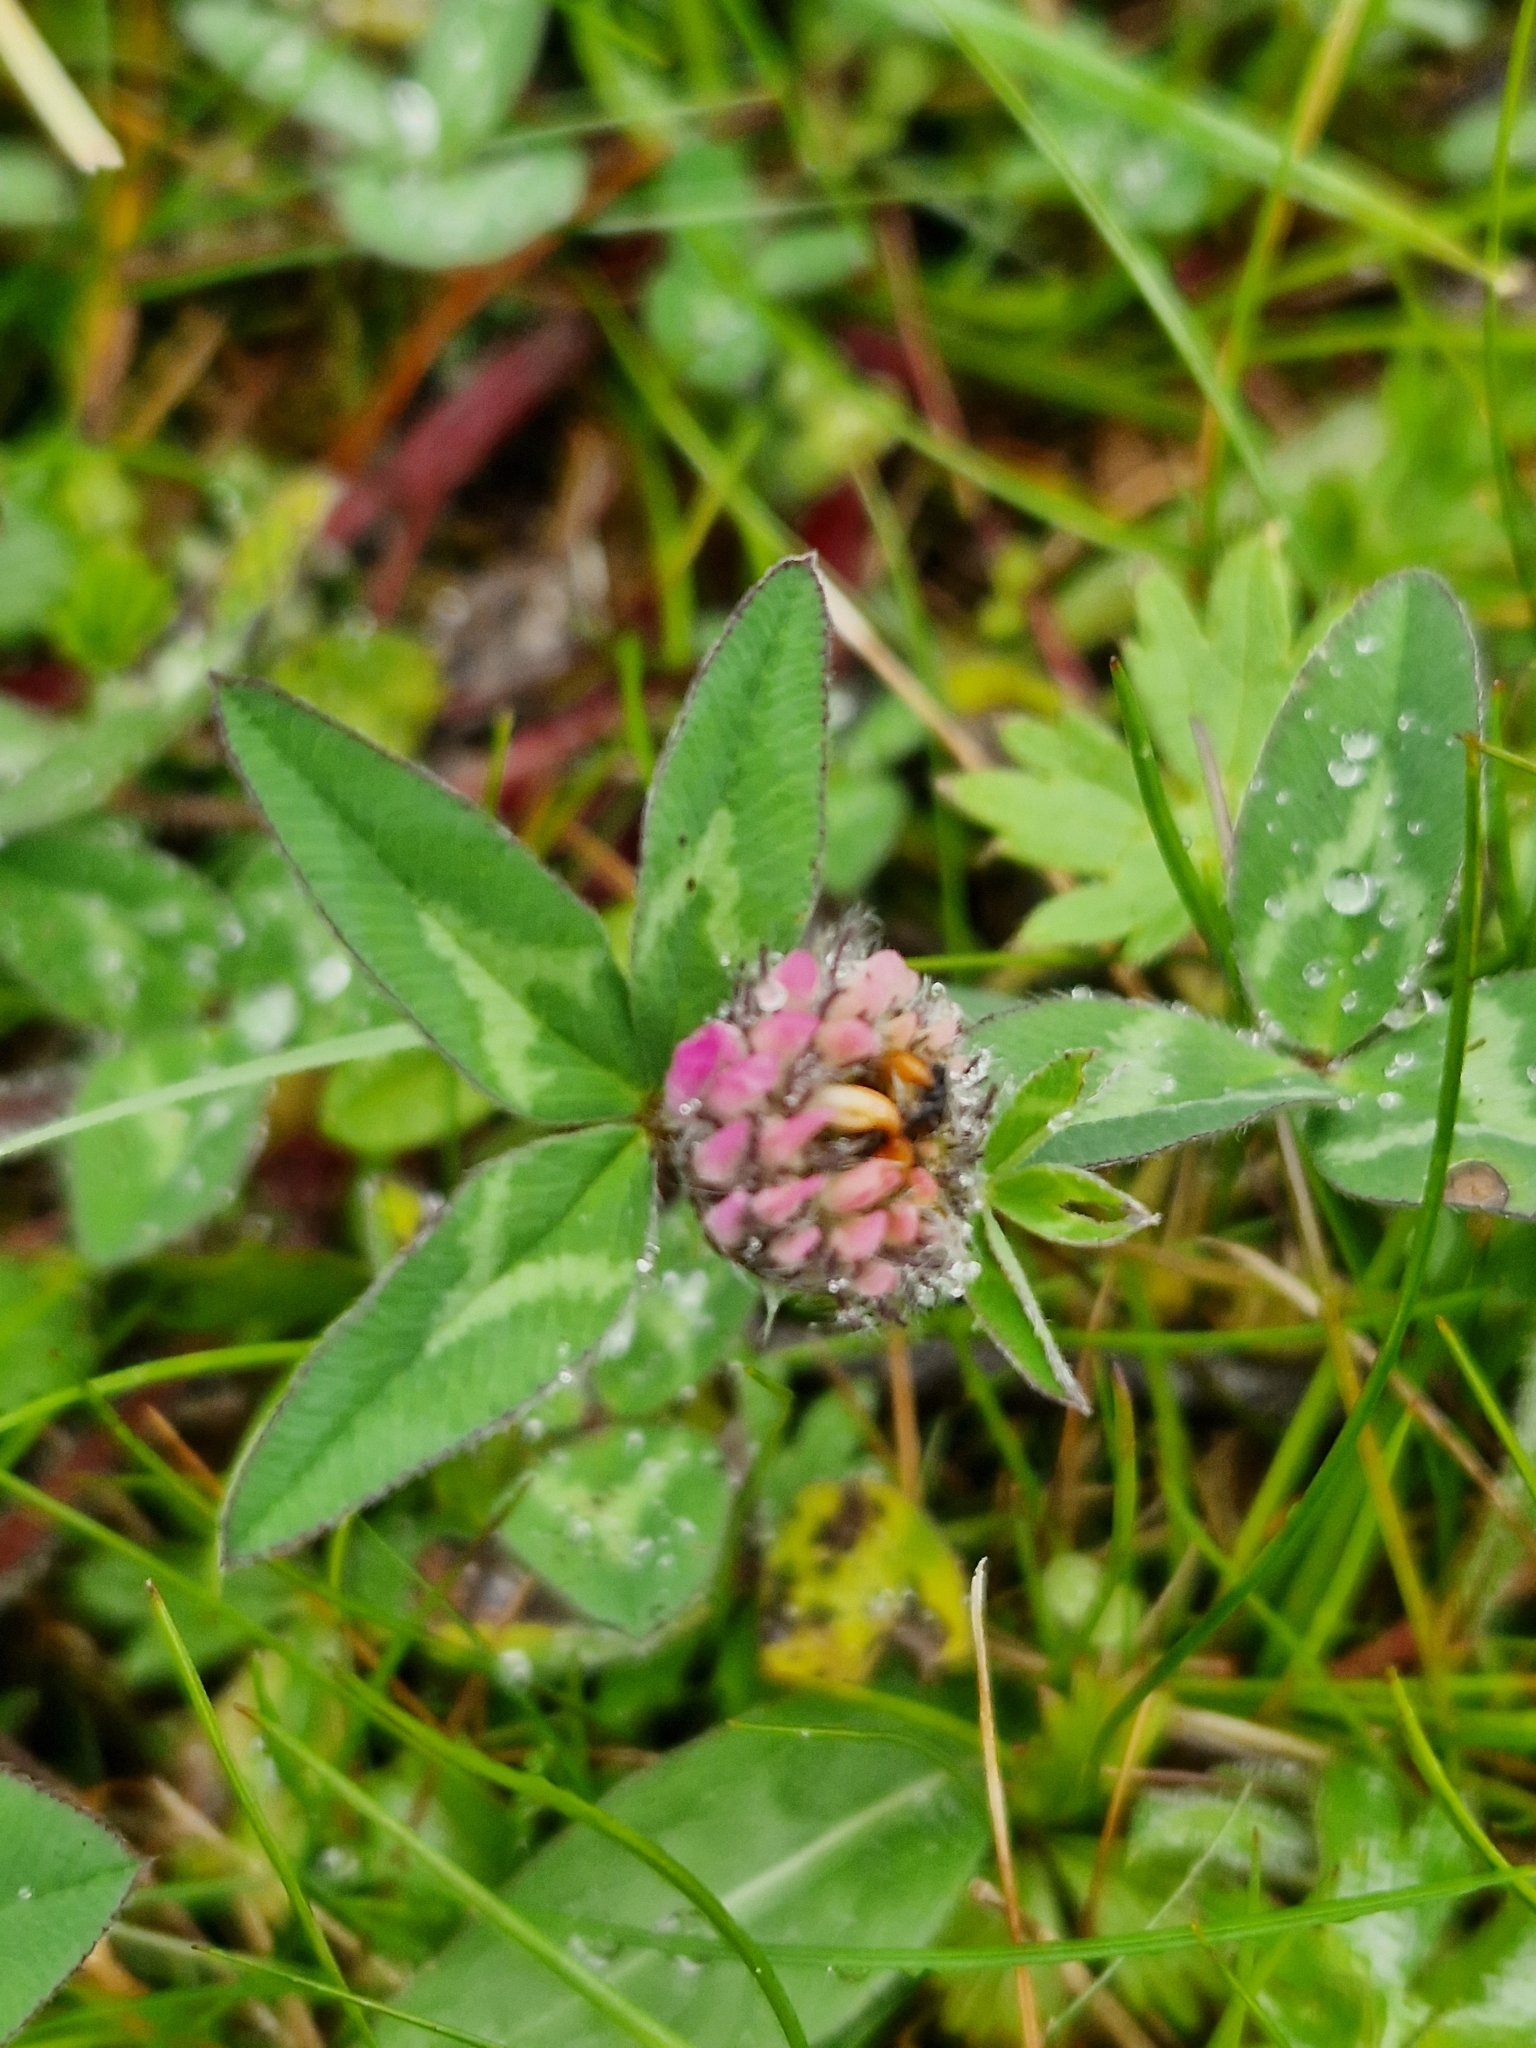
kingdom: Plantae
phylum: Tracheophyta
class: Magnoliopsida
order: Fabales
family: Fabaceae
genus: Trifolium
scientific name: Trifolium pratense
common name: Red clover
